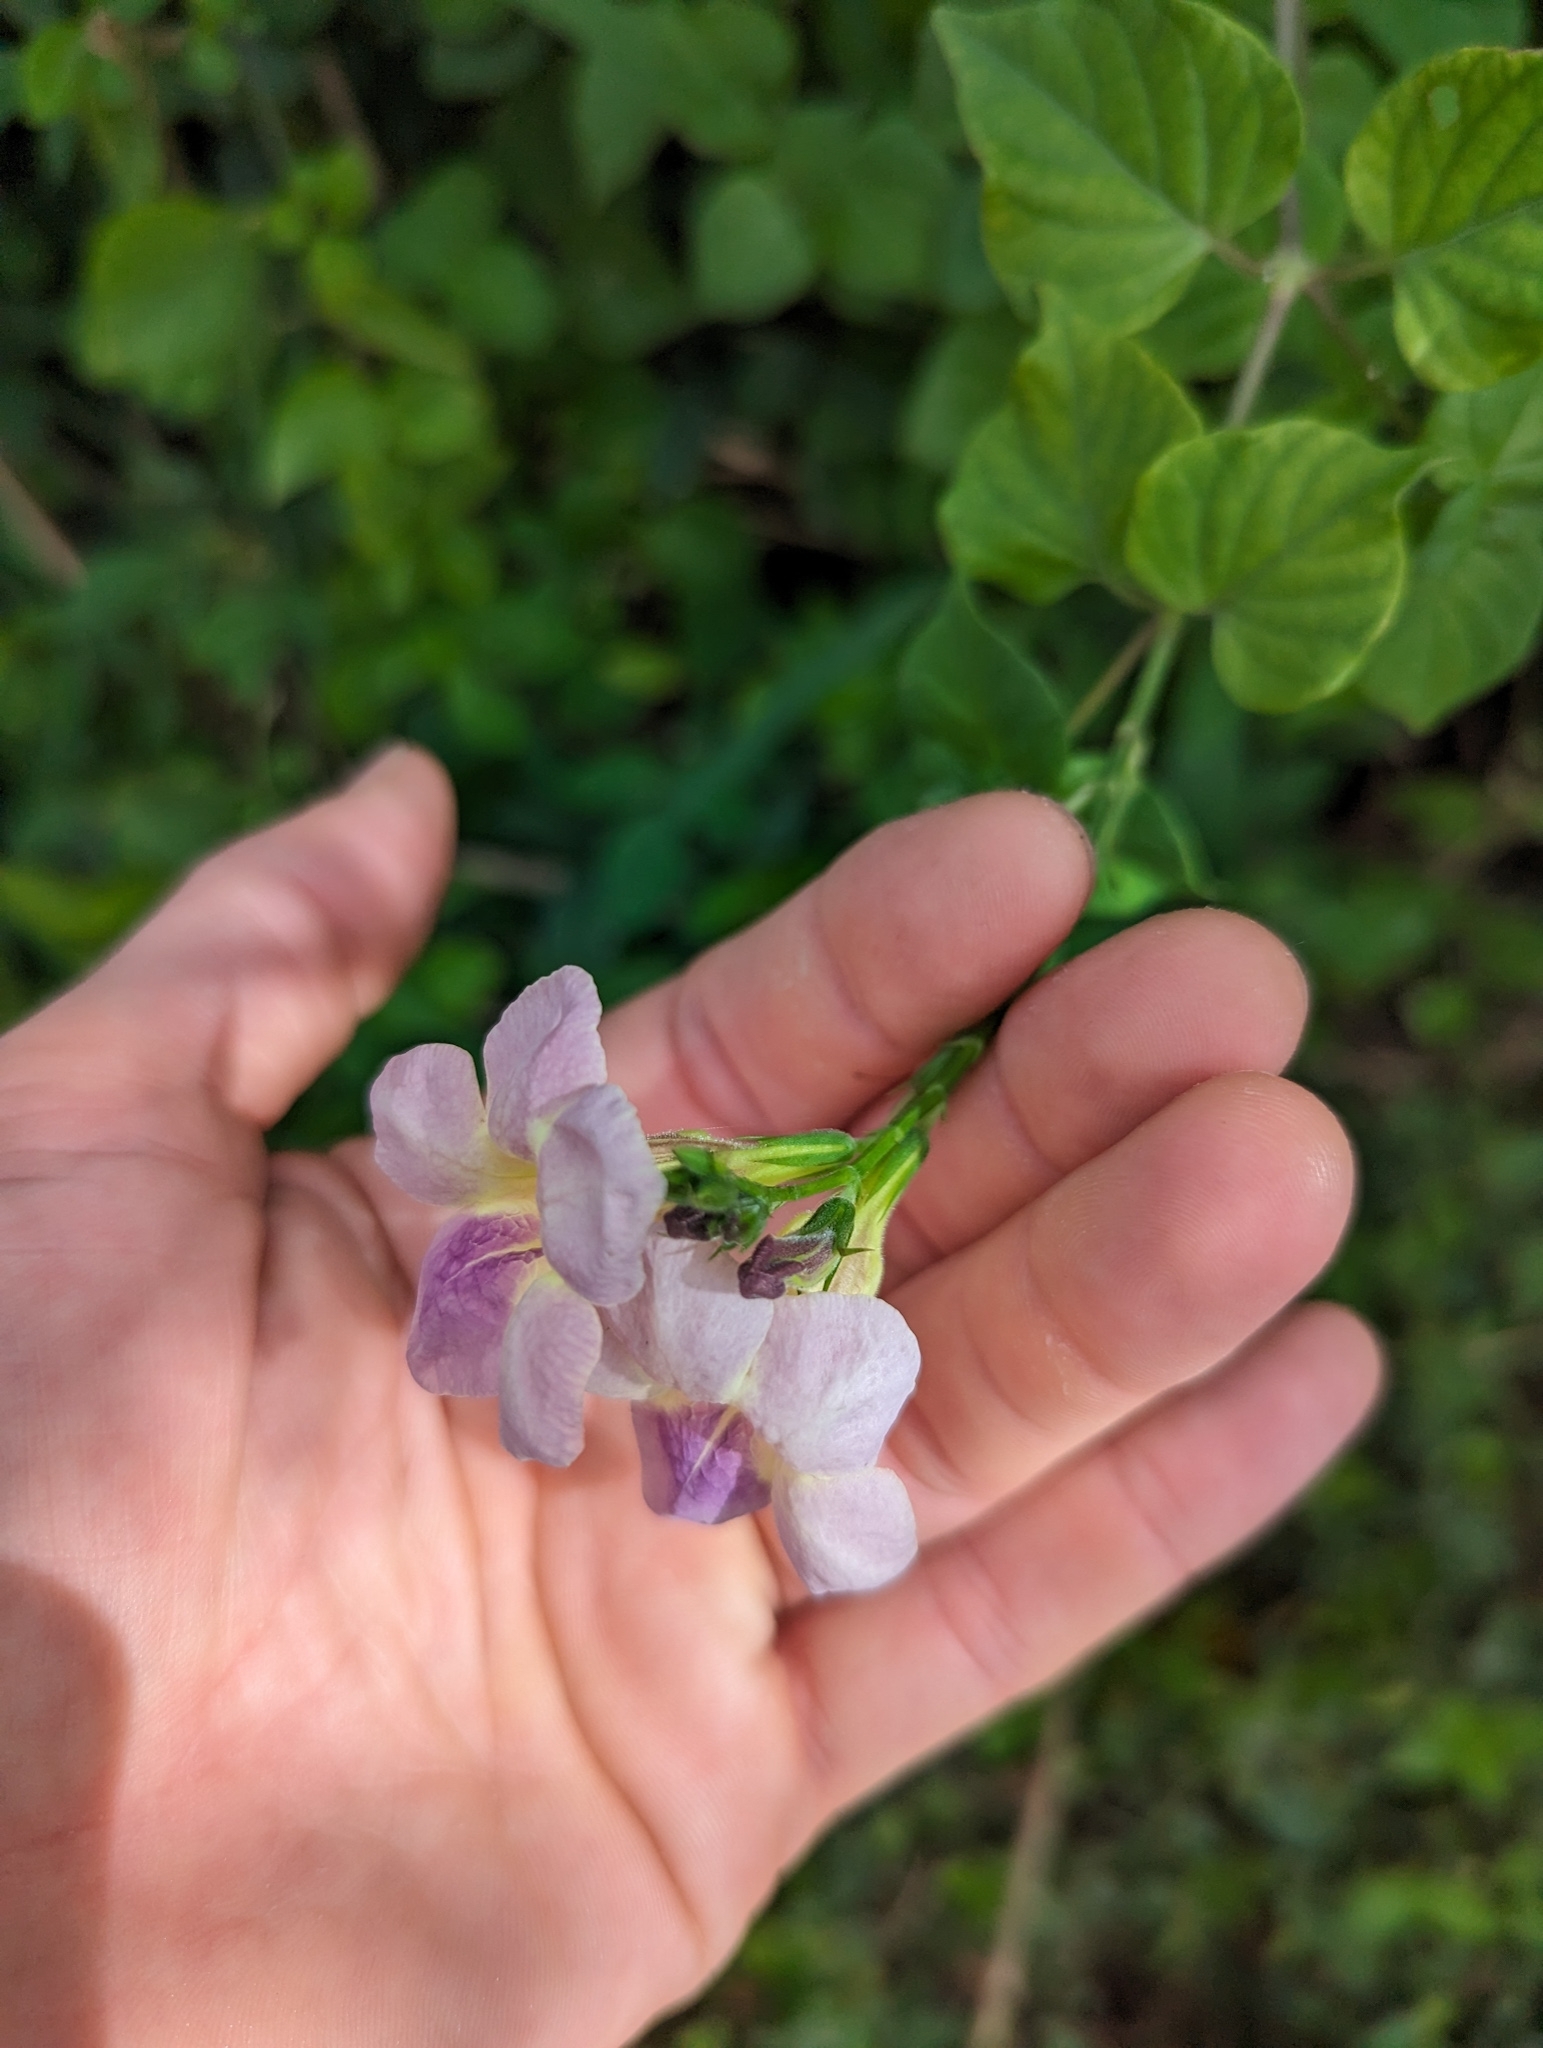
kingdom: Plantae
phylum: Tracheophyta
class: Magnoliopsida
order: Lamiales
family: Acanthaceae
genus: Asystasia
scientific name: Asystasia gangetica
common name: Chinese violet
